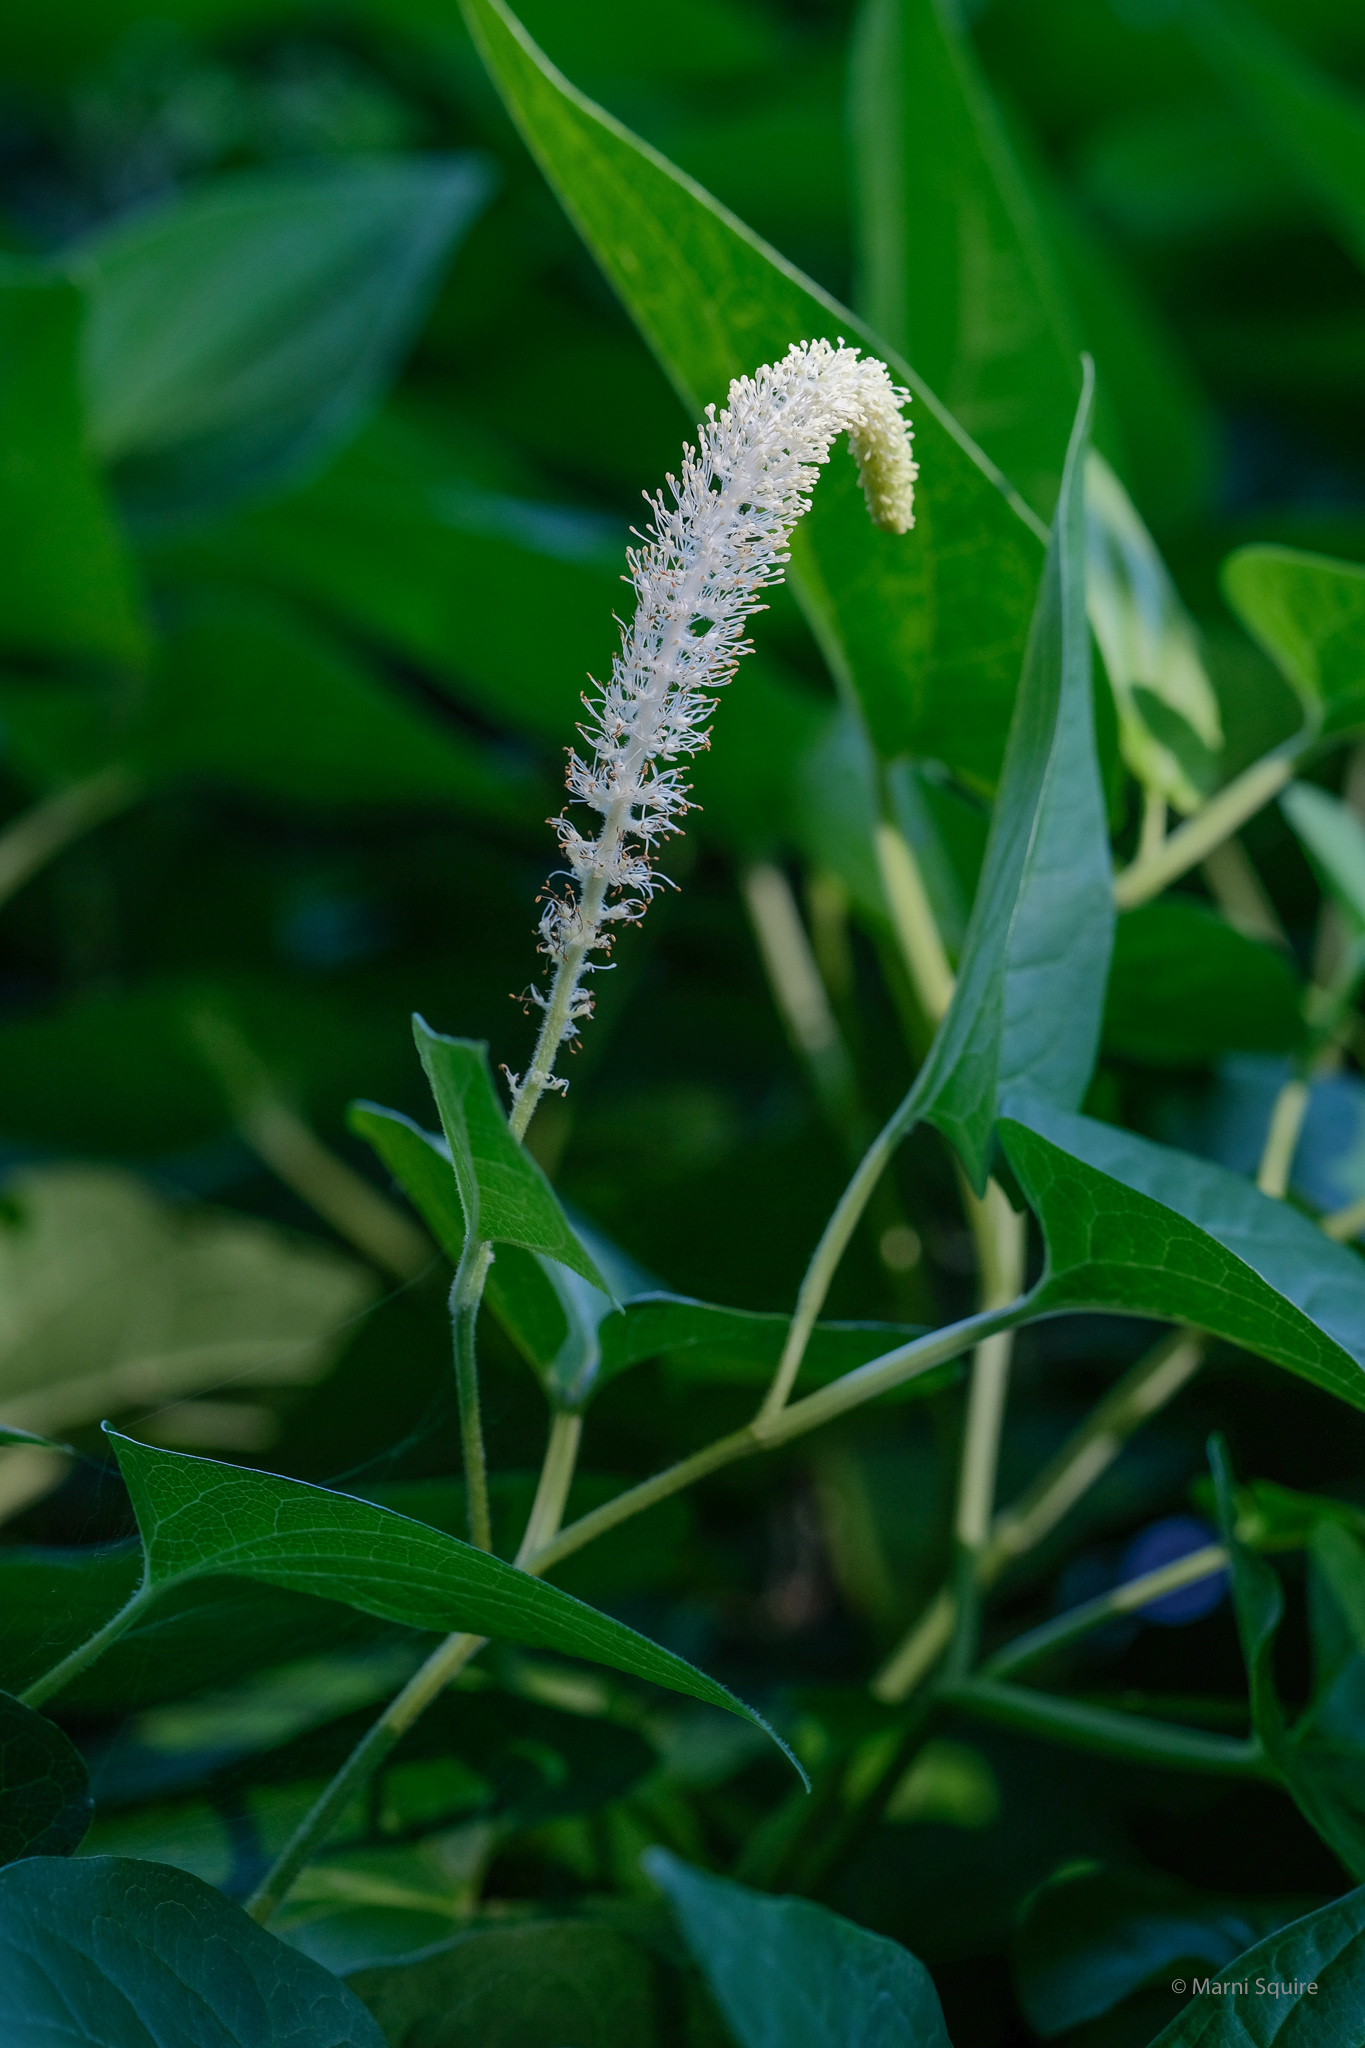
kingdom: Plantae
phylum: Tracheophyta
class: Magnoliopsida
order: Piperales
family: Saururaceae
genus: Saururus
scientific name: Saururus cernuus
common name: Lizard's-tail
